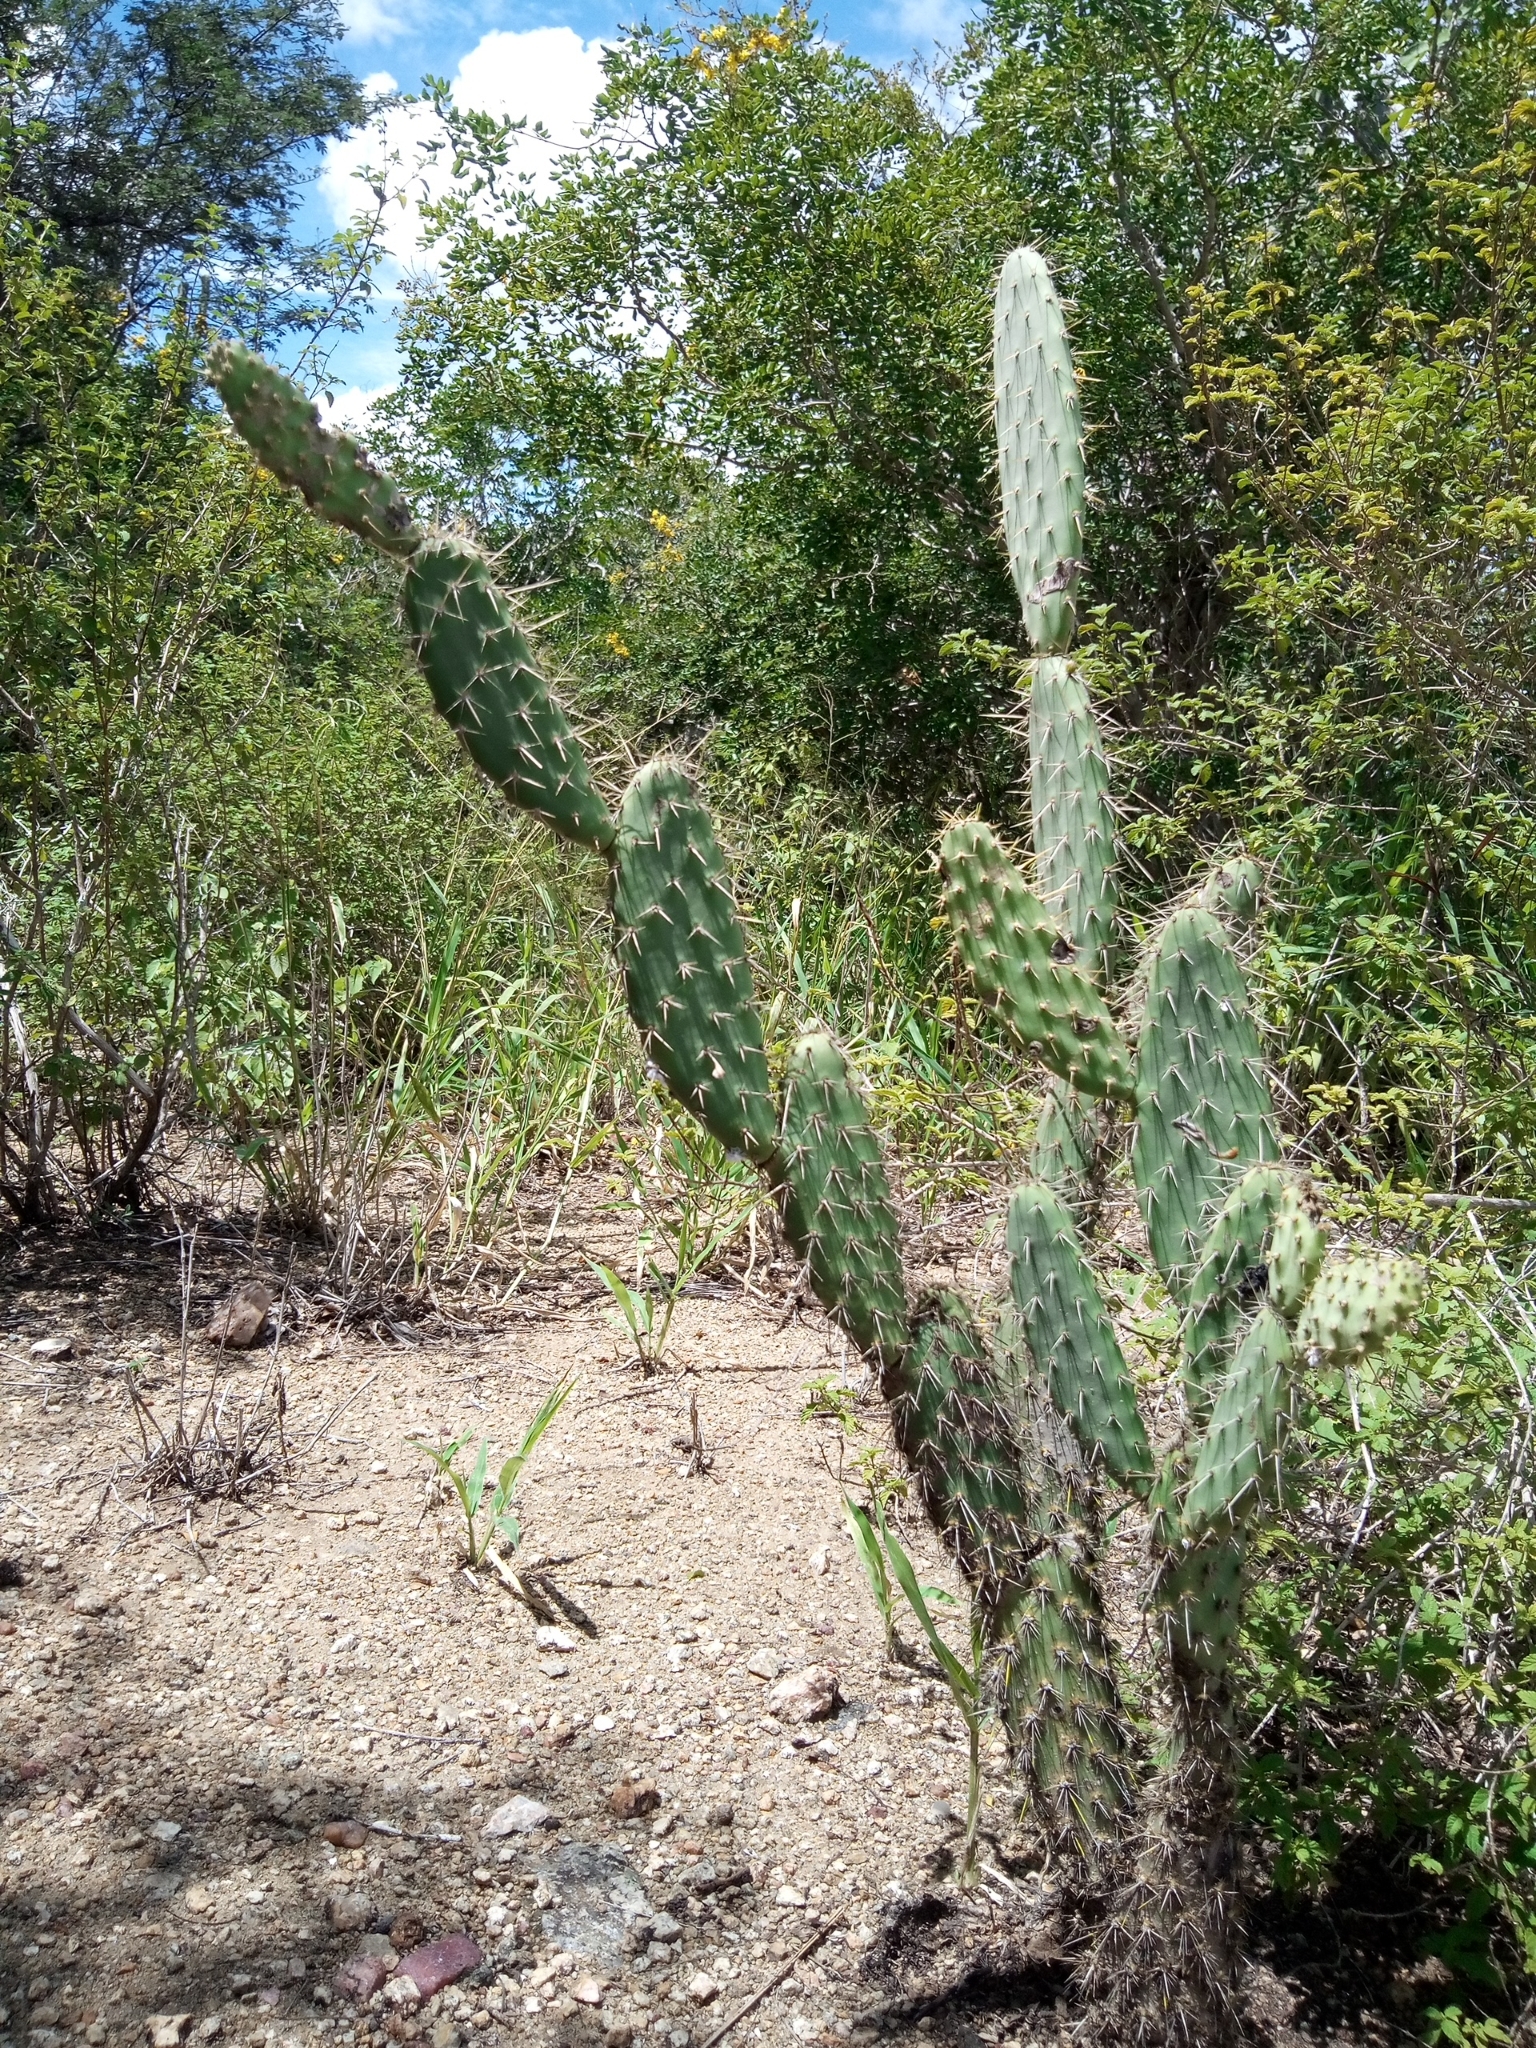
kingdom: Plantae
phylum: Tracheophyta
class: Magnoliopsida
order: Caryophyllales
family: Cactaceae
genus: Tacinga
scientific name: Tacinga palmadora
